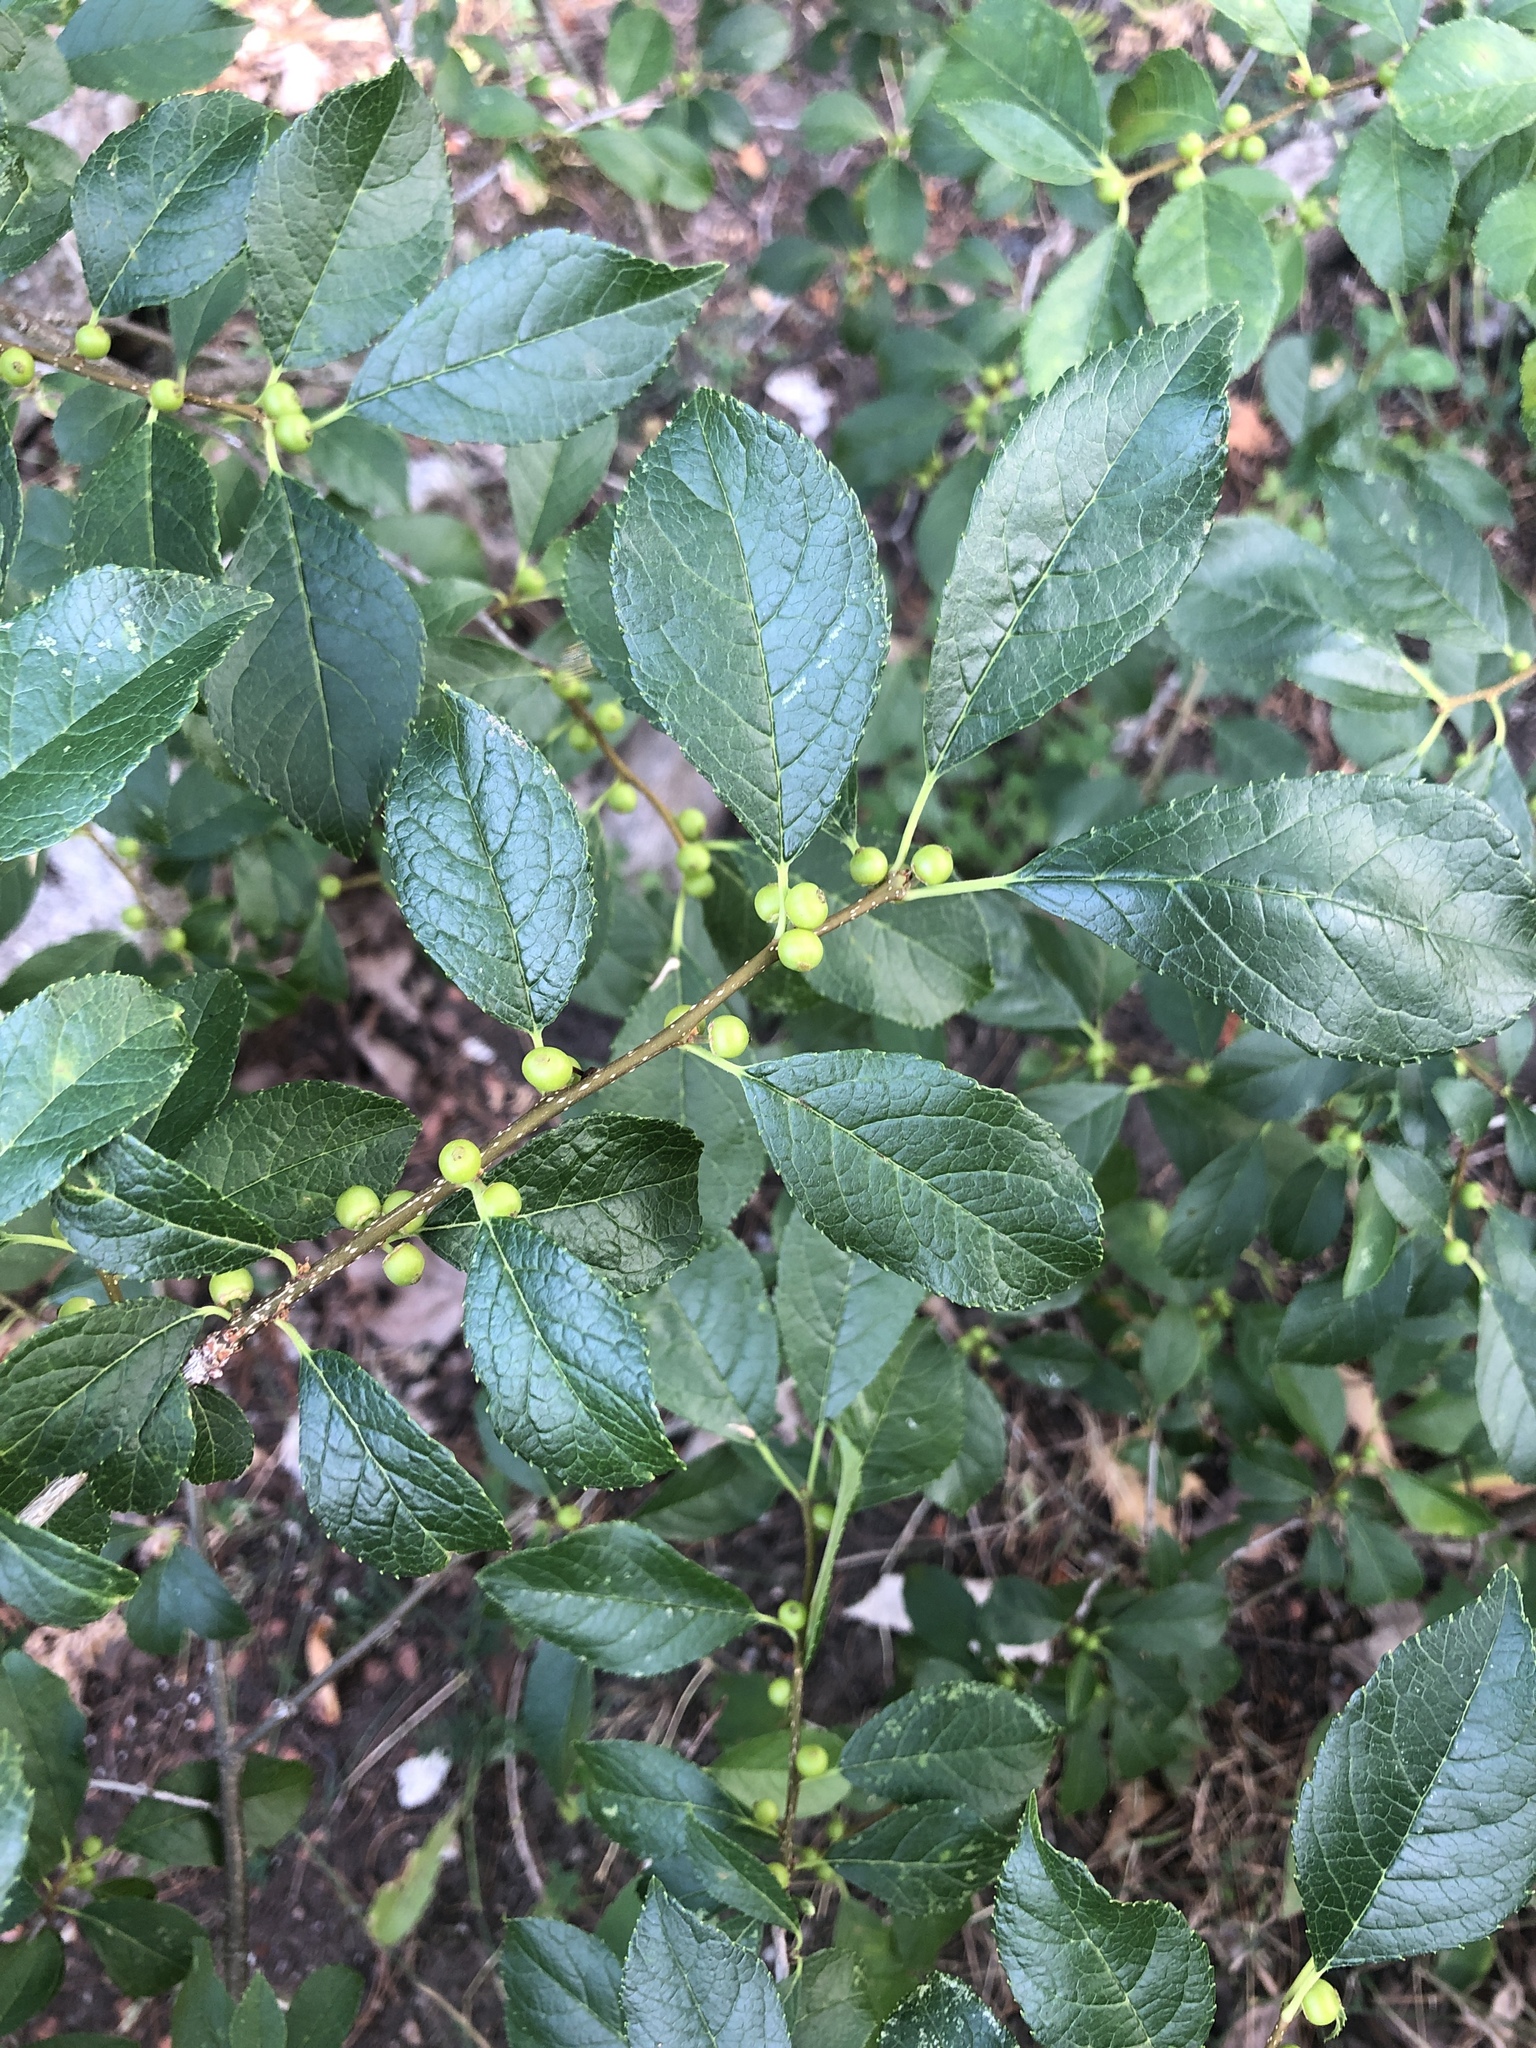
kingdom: Plantae
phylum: Tracheophyta
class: Magnoliopsida
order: Aquifoliales
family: Aquifoliaceae
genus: Ilex
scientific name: Ilex verticillata
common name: Virginia winterberry
